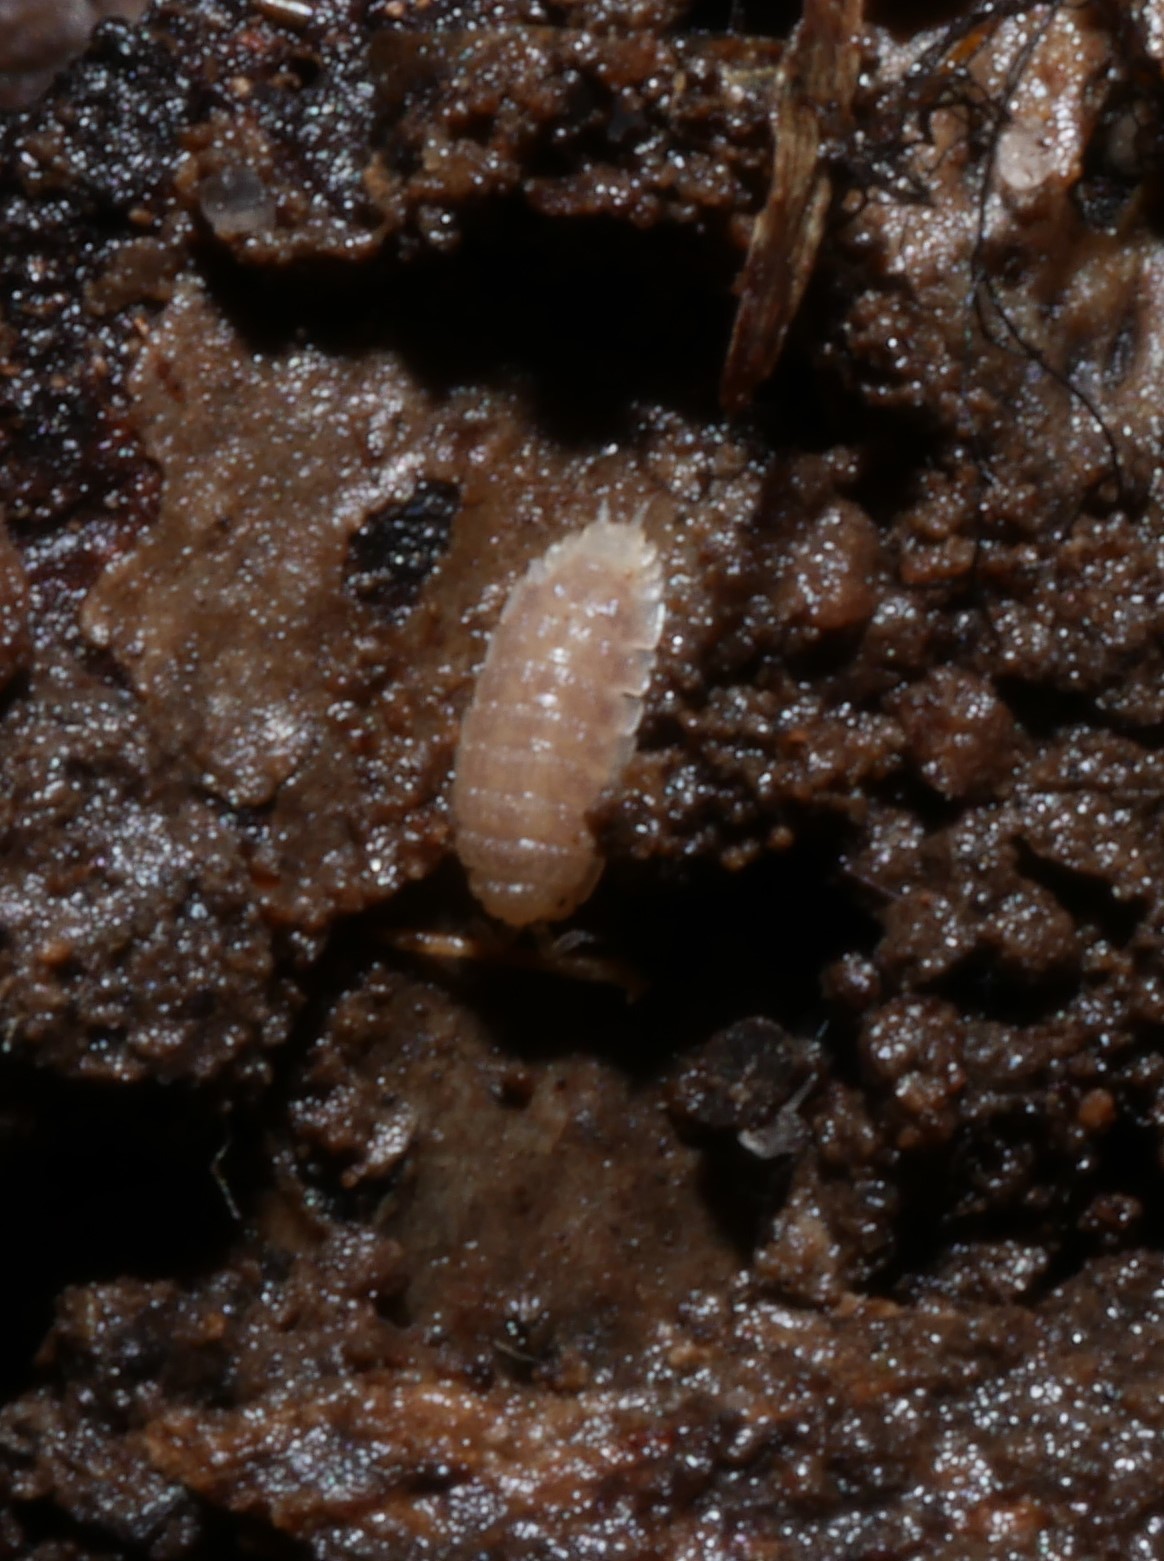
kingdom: Animalia
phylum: Arthropoda
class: Malacostraca
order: Isopoda
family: Trichoniscidae
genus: Haplophthalmus
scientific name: Haplophthalmus danicus
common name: Pillbug
